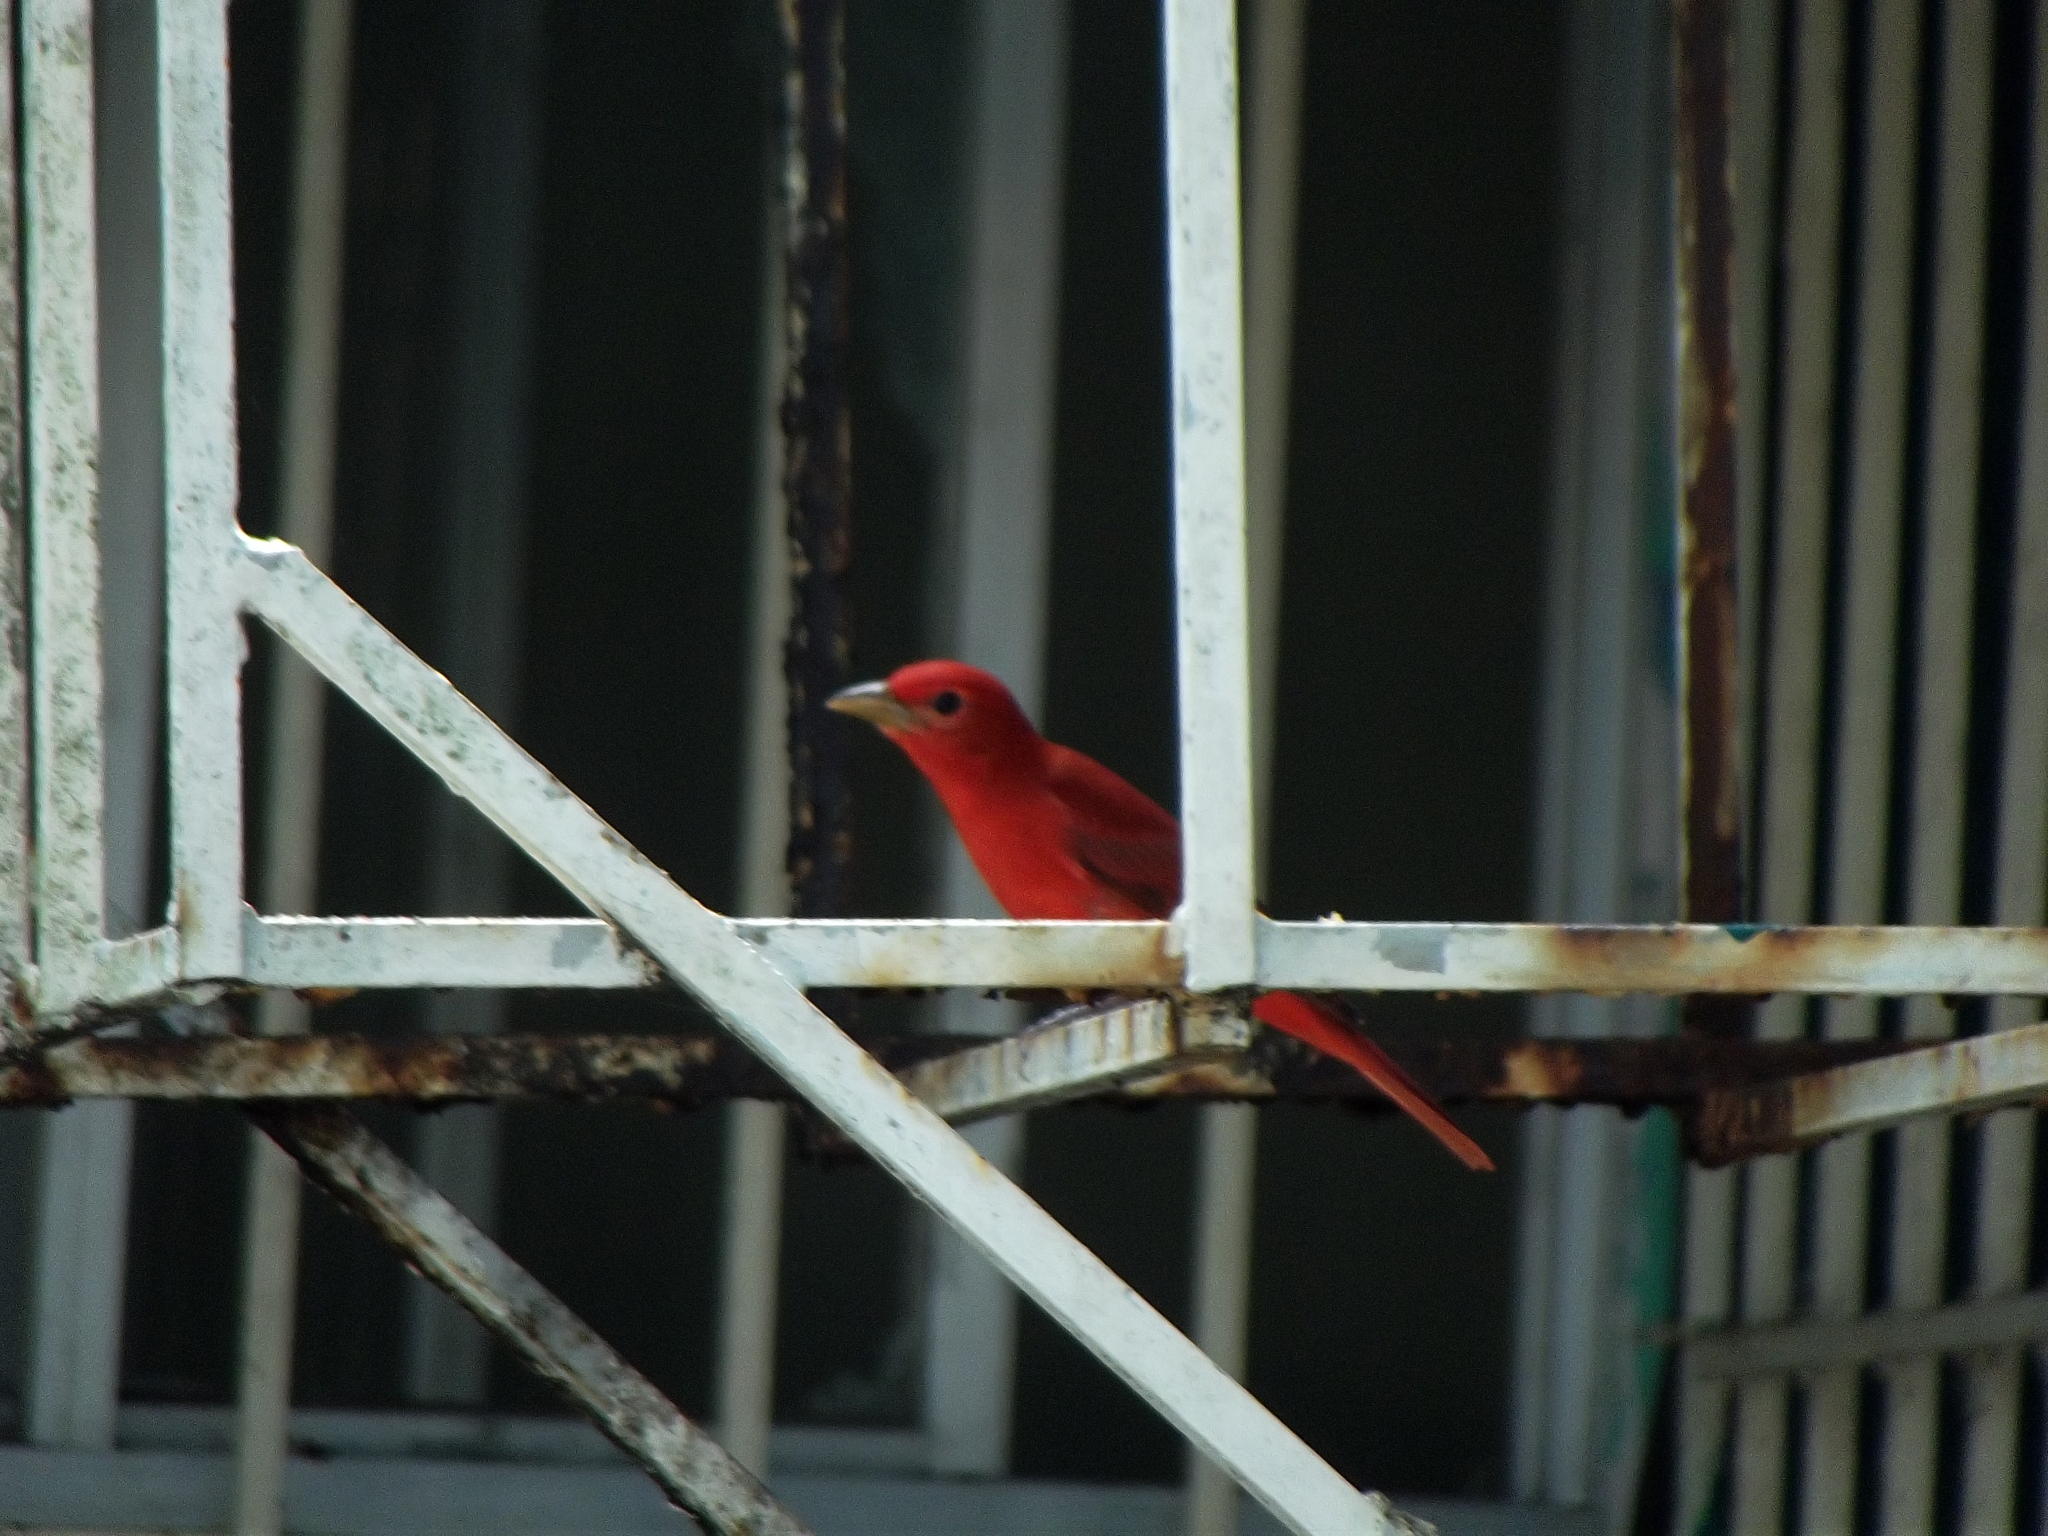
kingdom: Animalia
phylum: Chordata
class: Aves
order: Passeriformes
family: Cardinalidae
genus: Piranga
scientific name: Piranga rubra
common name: Summer tanager
